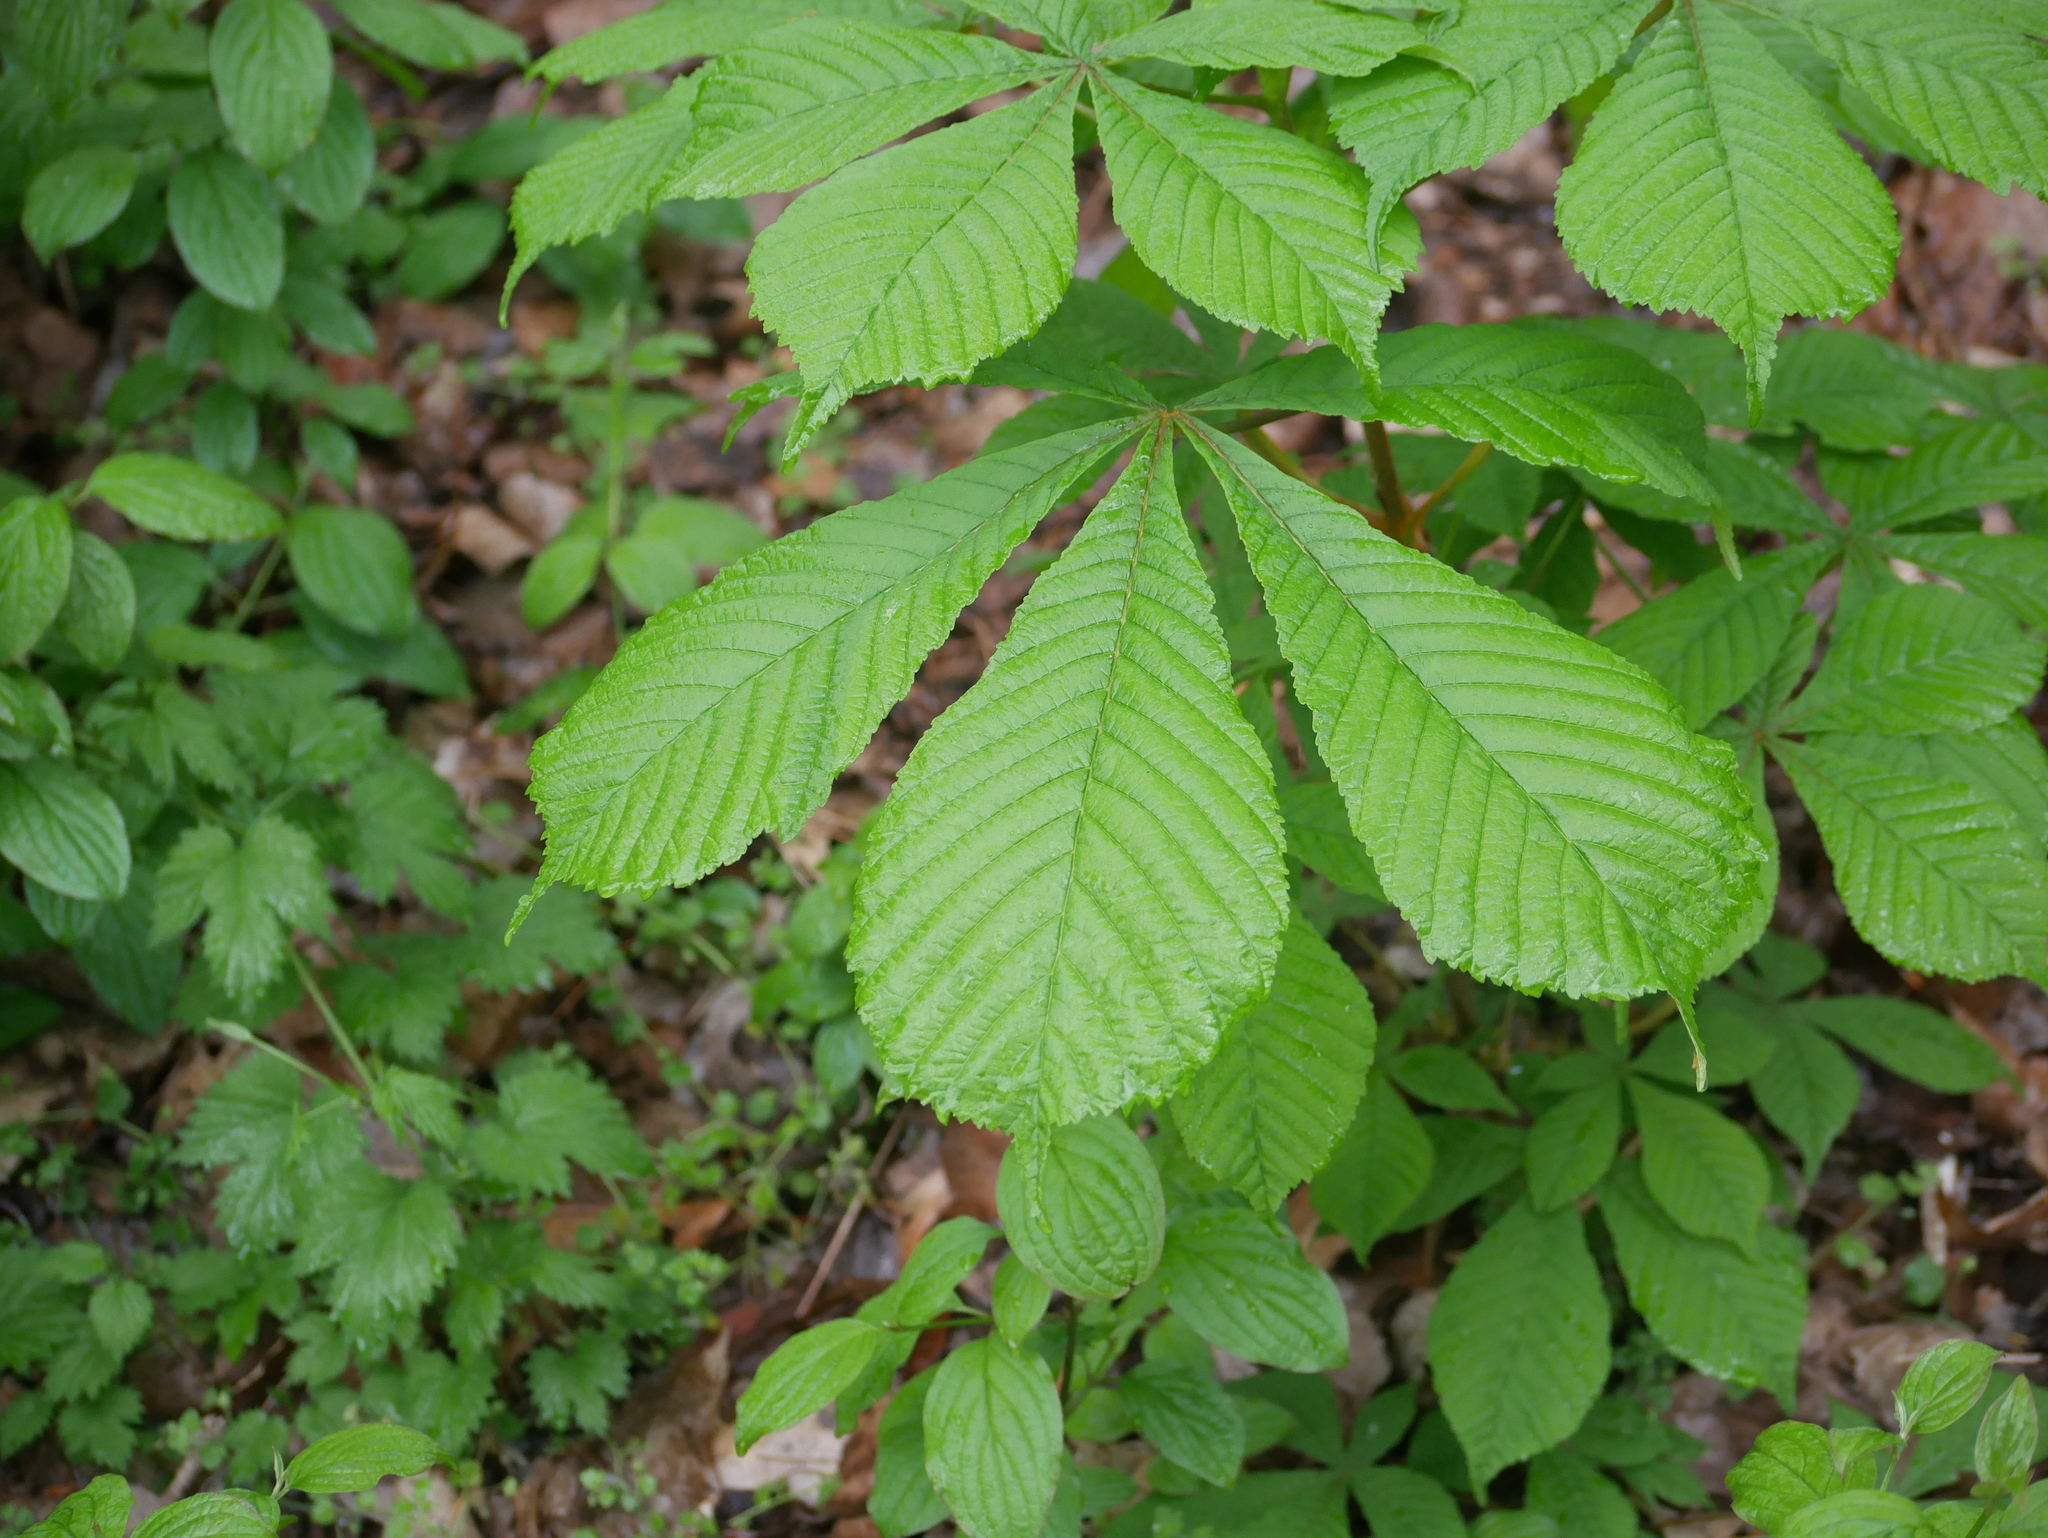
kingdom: Plantae
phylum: Tracheophyta
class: Magnoliopsida
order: Sapindales
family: Sapindaceae
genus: Aesculus
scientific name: Aesculus hippocastanum
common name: Horse-chestnut
